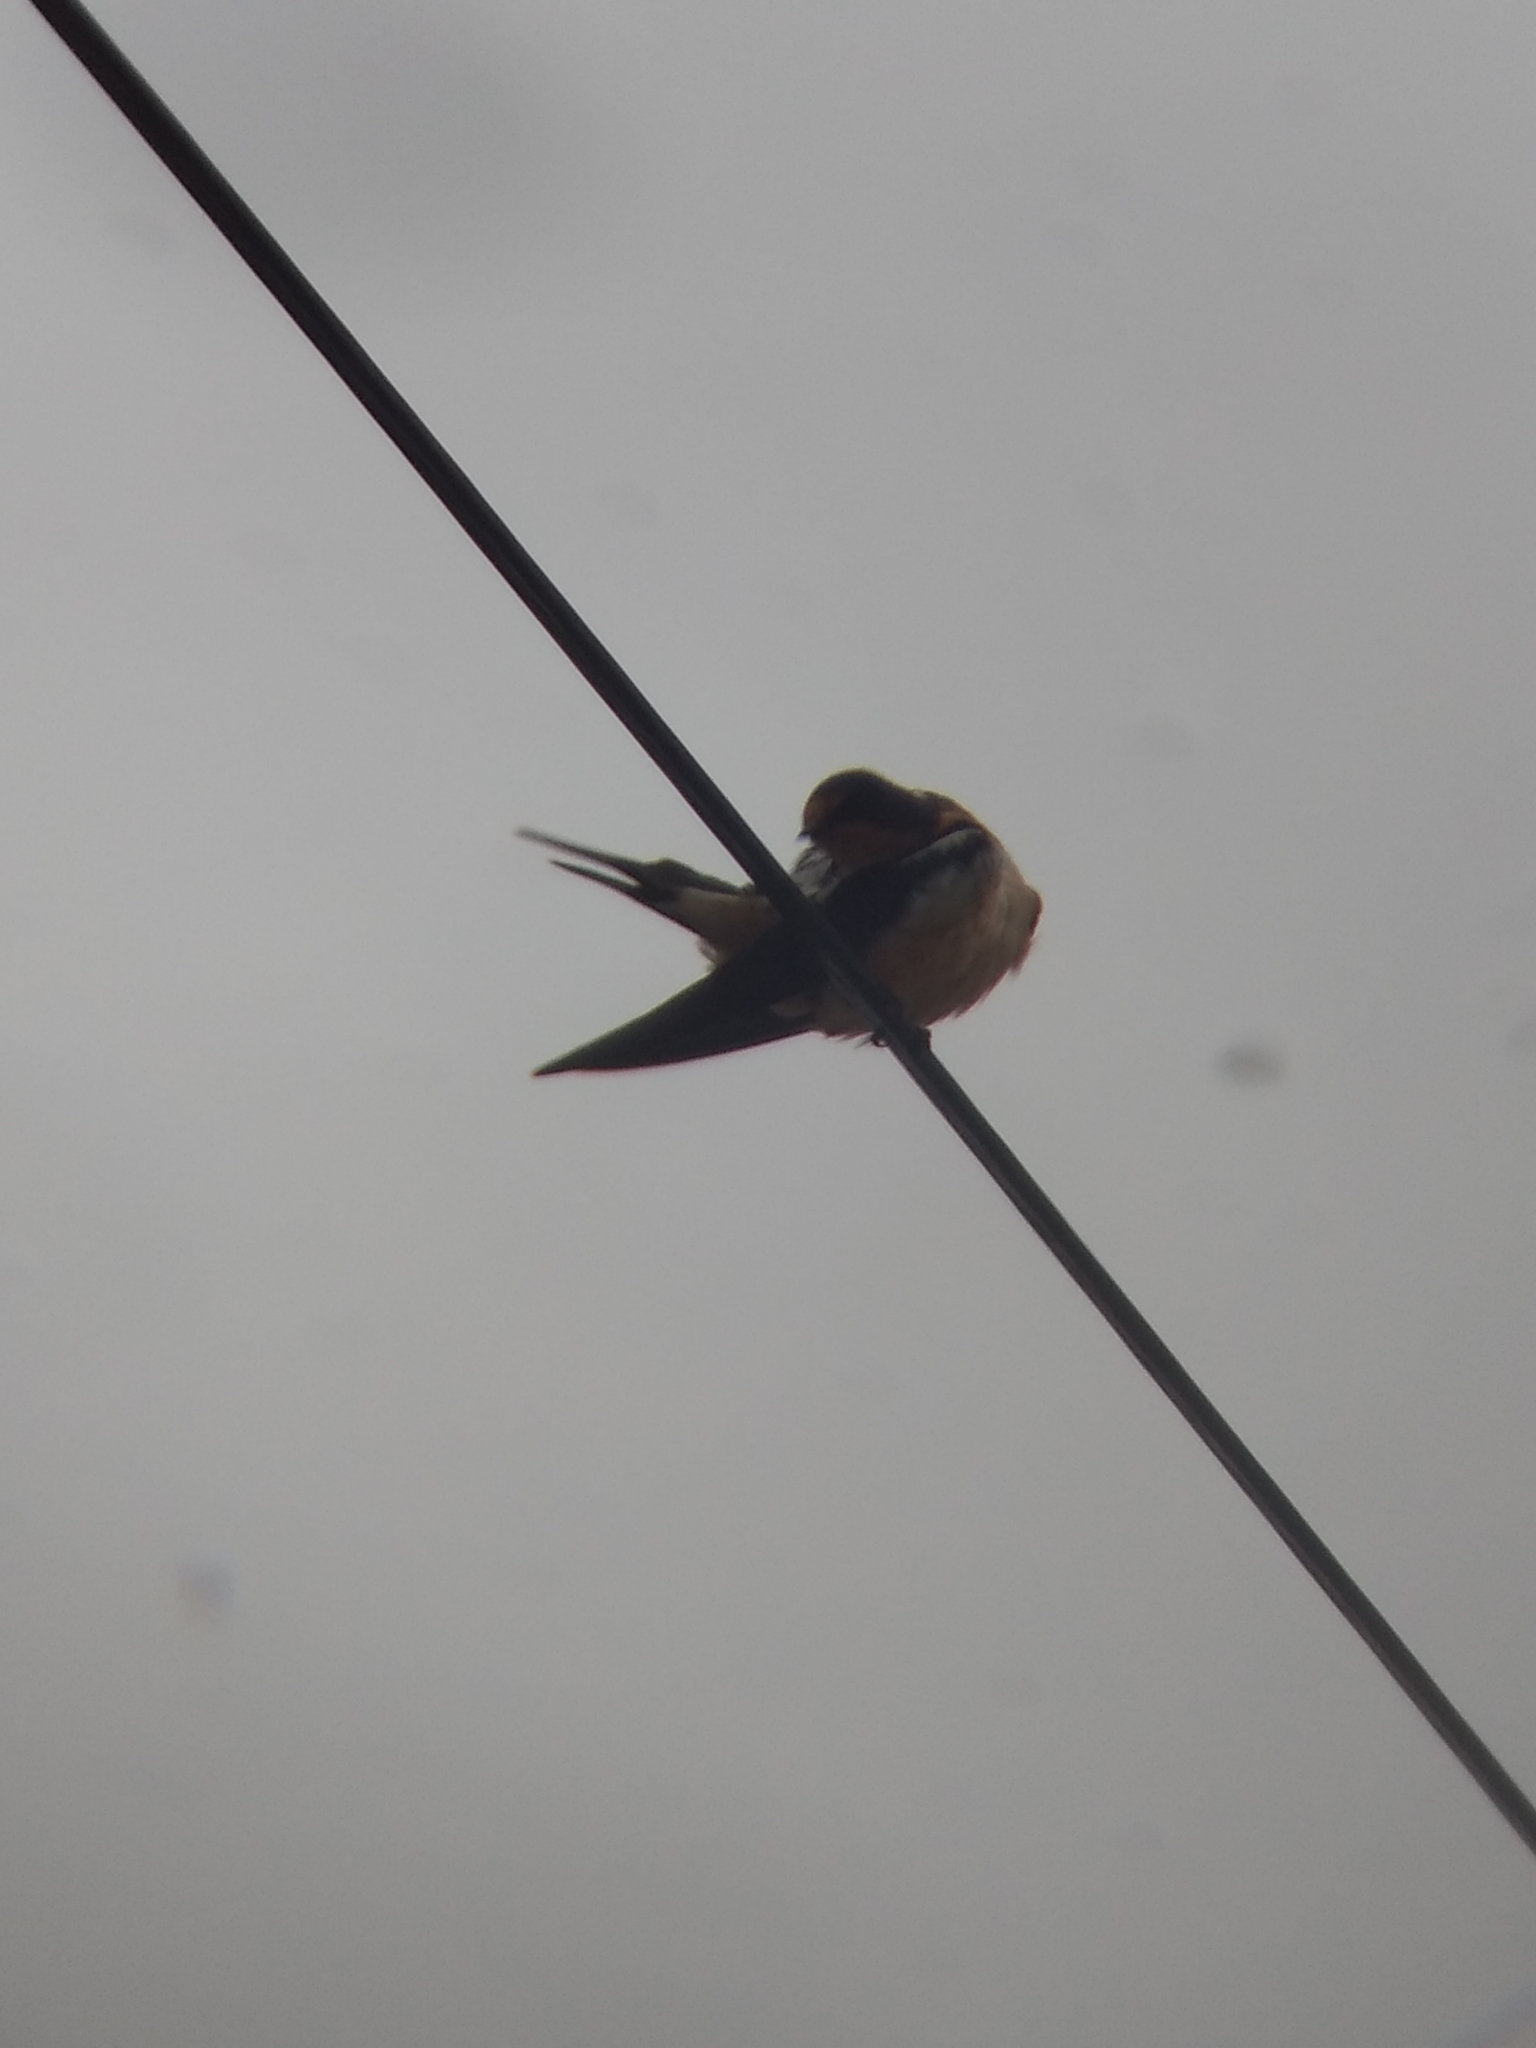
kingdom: Animalia
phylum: Chordata
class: Aves
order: Passeriformes
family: Hirundinidae
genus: Hirundo
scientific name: Hirundo rustica
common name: Barn swallow
